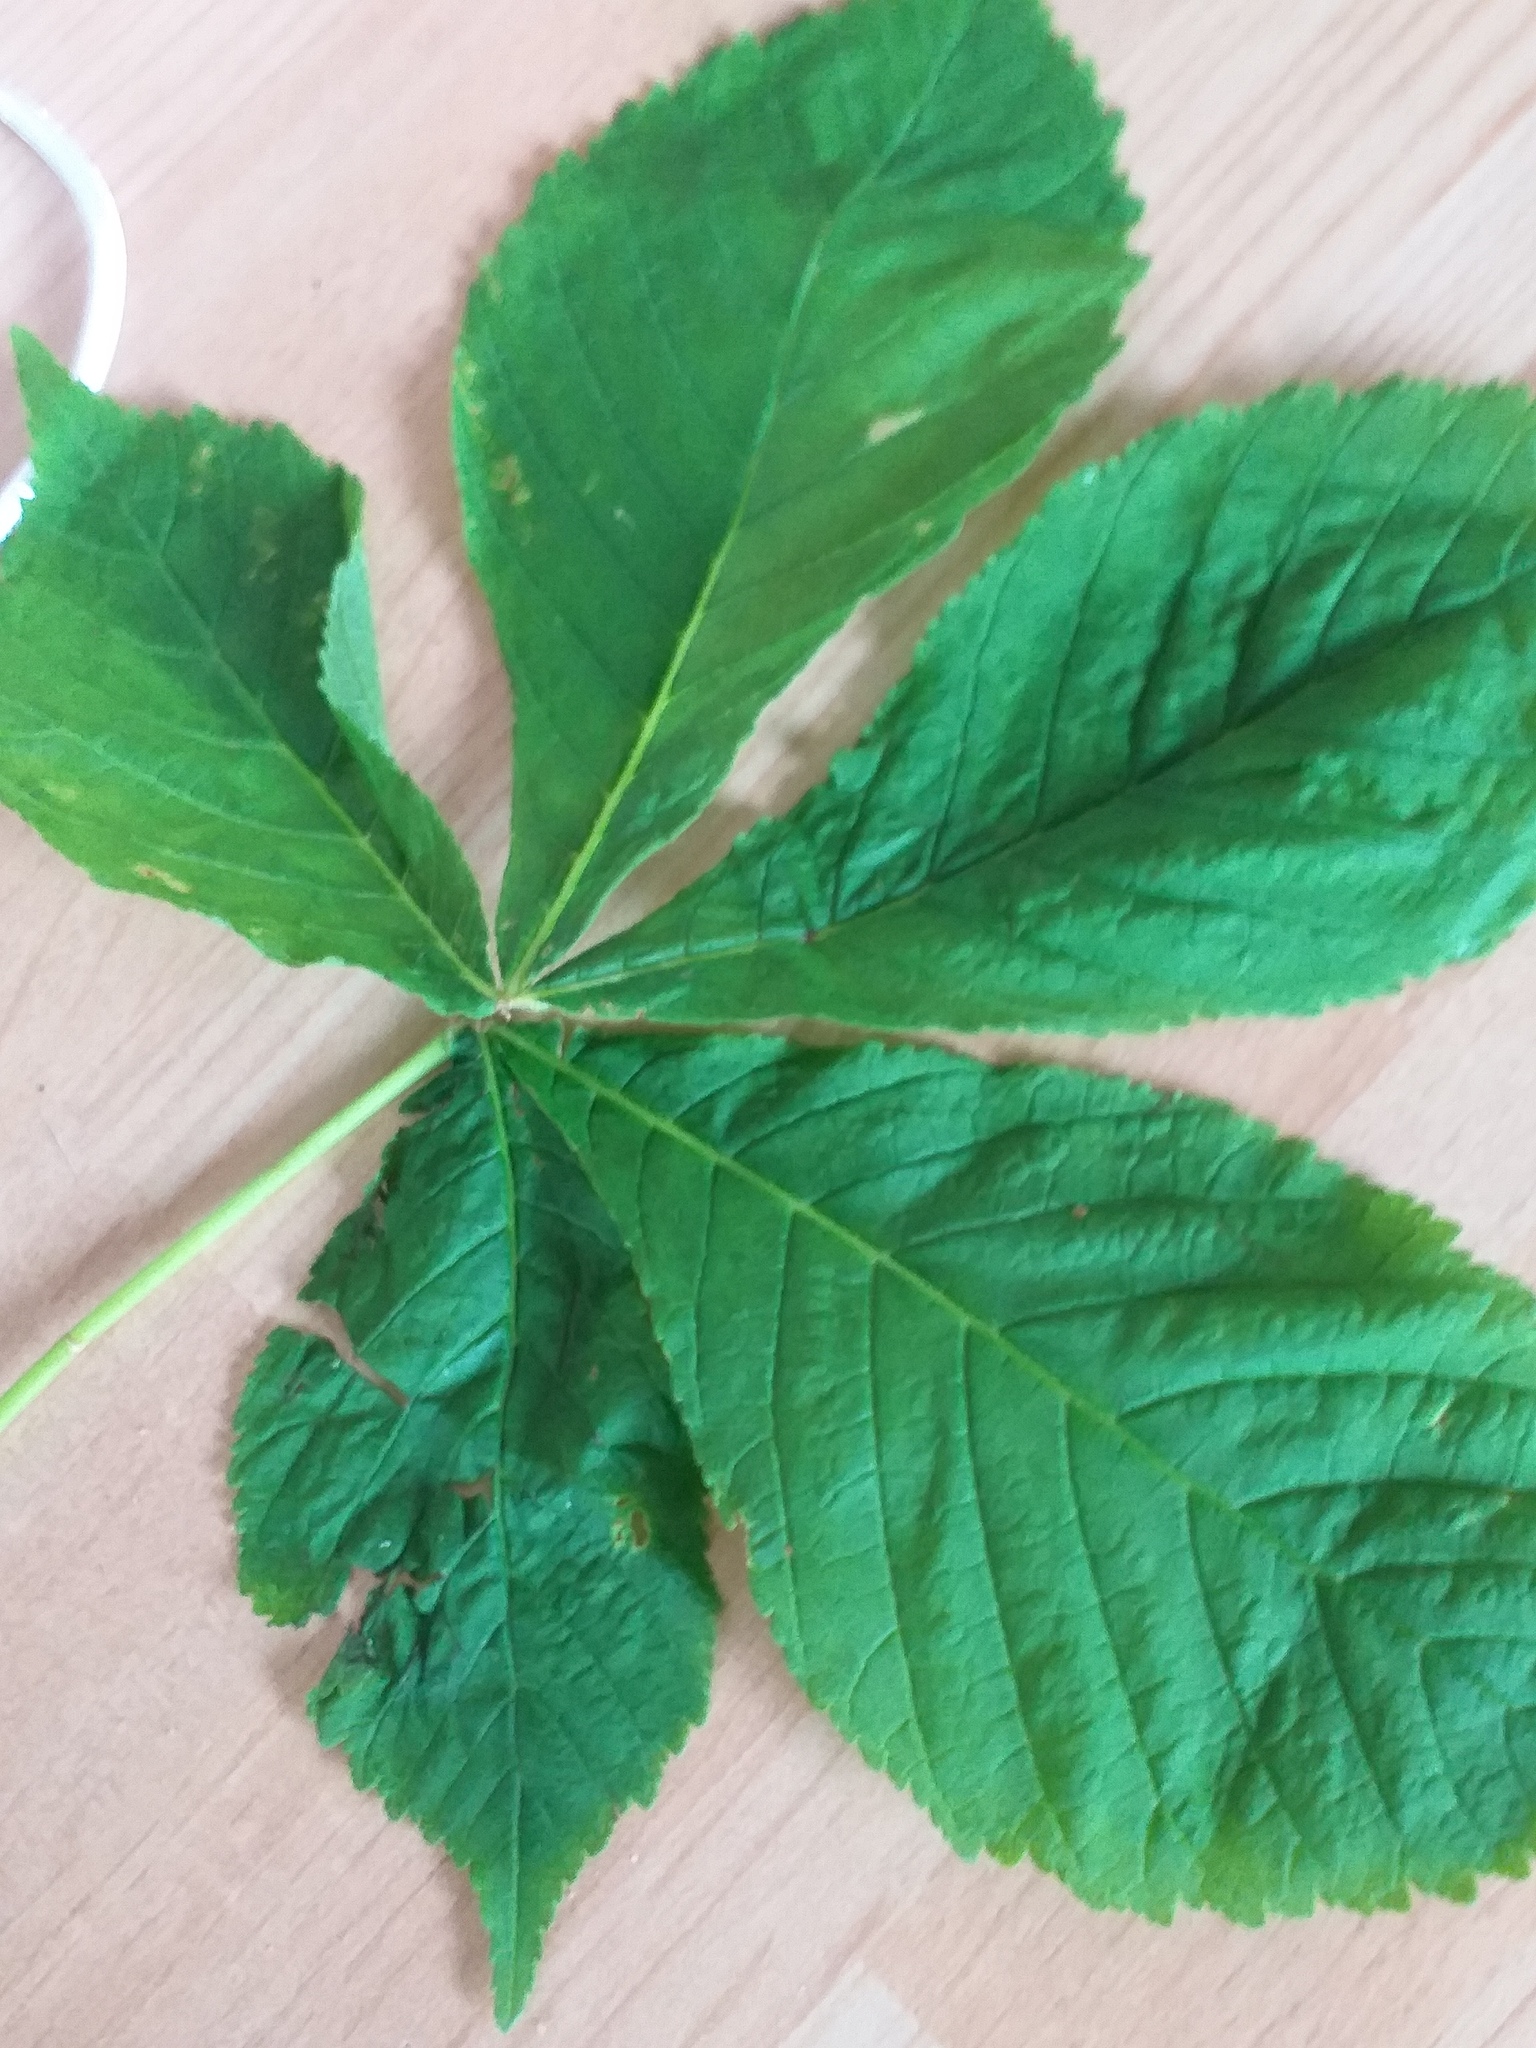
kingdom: Plantae
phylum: Tracheophyta
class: Magnoliopsida
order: Sapindales
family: Sapindaceae
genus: Aesculus
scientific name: Aesculus hippocastanum
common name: Horse-chestnut
